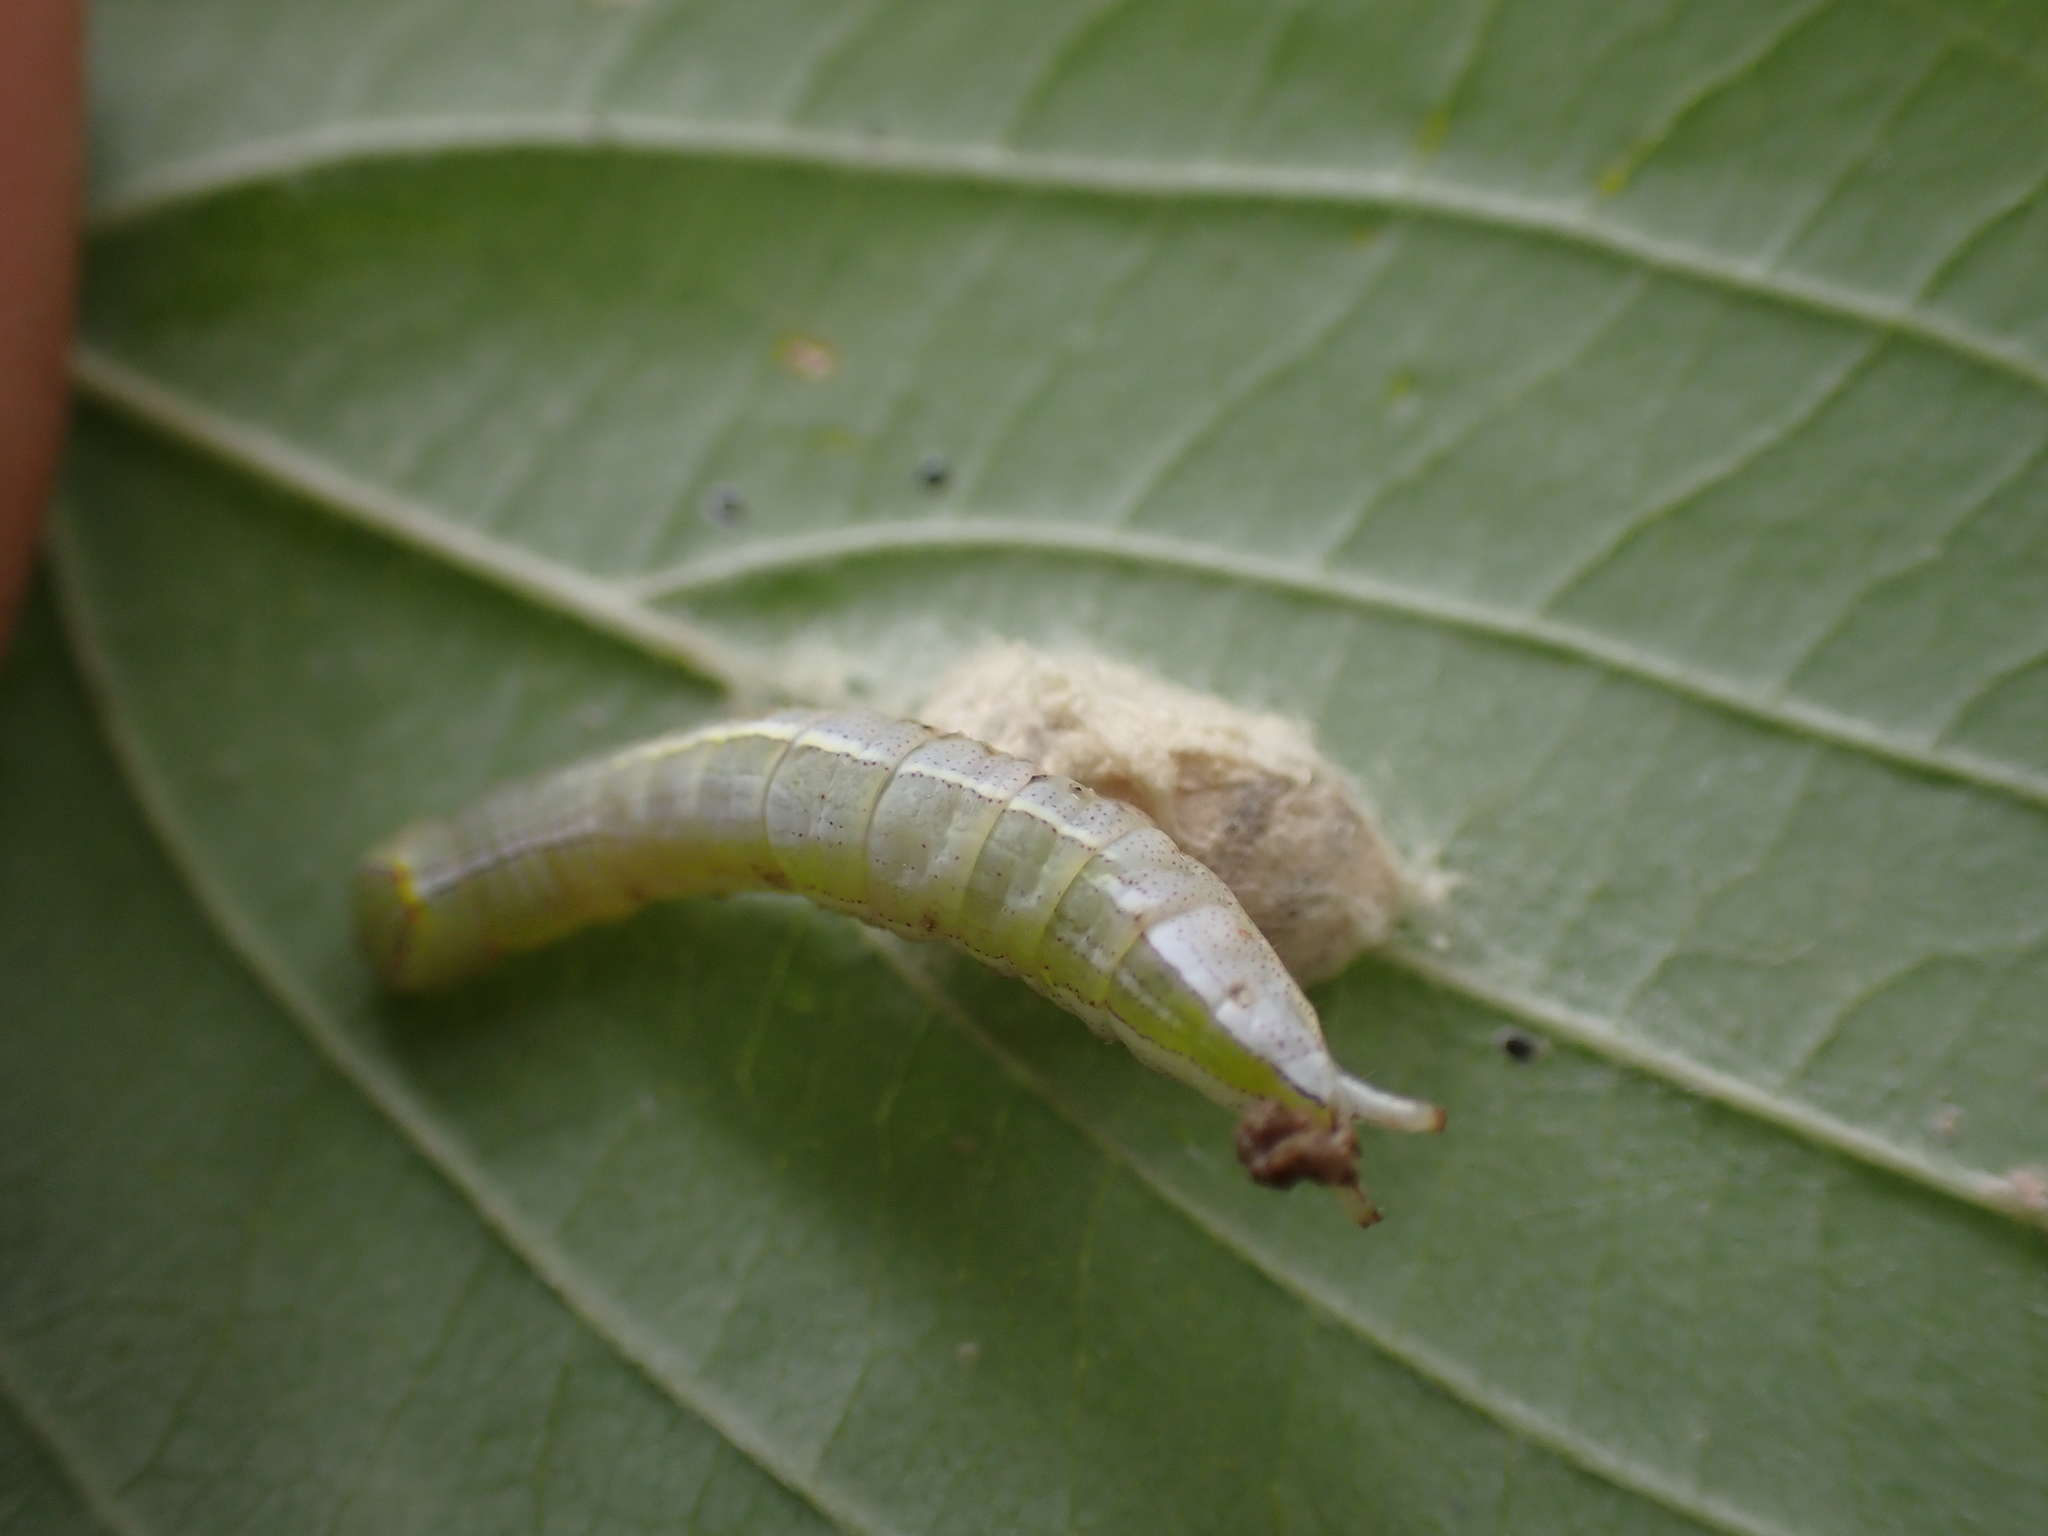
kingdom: Animalia
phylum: Arthropoda
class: Insecta
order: Lepidoptera
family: Notodontidae
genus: Disphragis
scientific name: Disphragis Cecrita guttivitta
